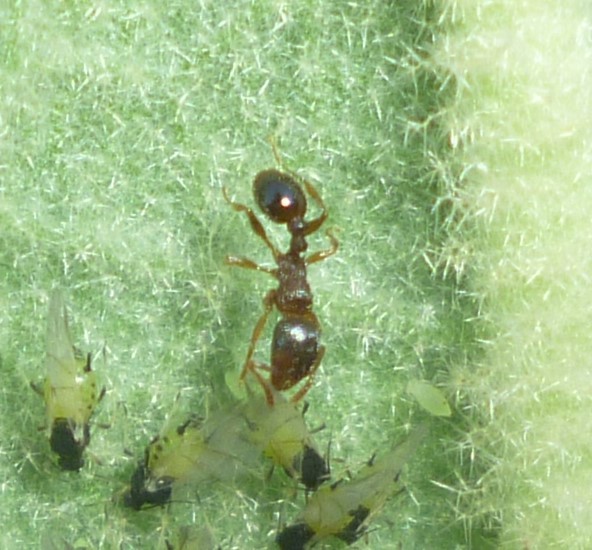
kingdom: Animalia
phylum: Arthropoda
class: Insecta
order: Hymenoptera
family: Formicidae
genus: Tetramorium
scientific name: Tetramorium immigrans
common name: Pavement ant
